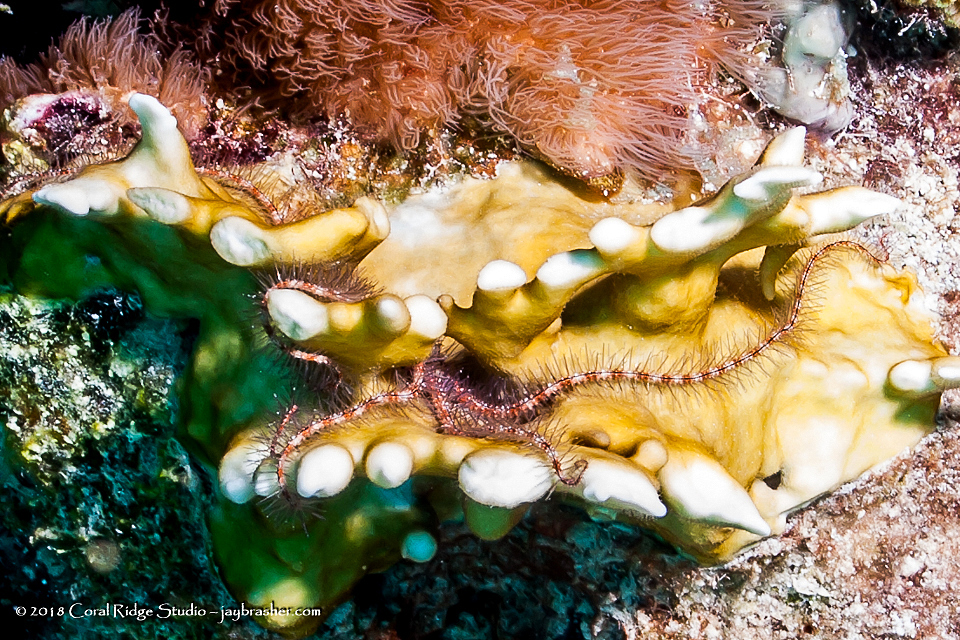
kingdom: Animalia
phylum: Echinodermata
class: Ophiuroidea
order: Amphilepidida
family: Ophiotrichidae
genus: Ophiothrix
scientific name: Ophiothrix suensonii
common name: Sponge brittle star
